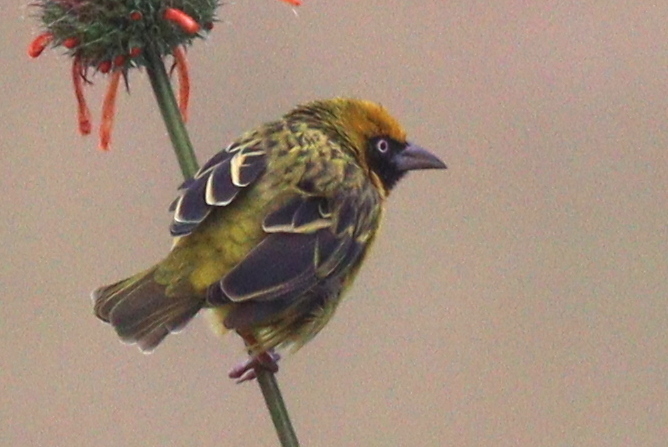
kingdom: Animalia
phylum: Chordata
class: Aves
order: Passeriformes
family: Ploceidae
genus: Ploceus
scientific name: Ploceus spekei
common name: Speke's weaver
